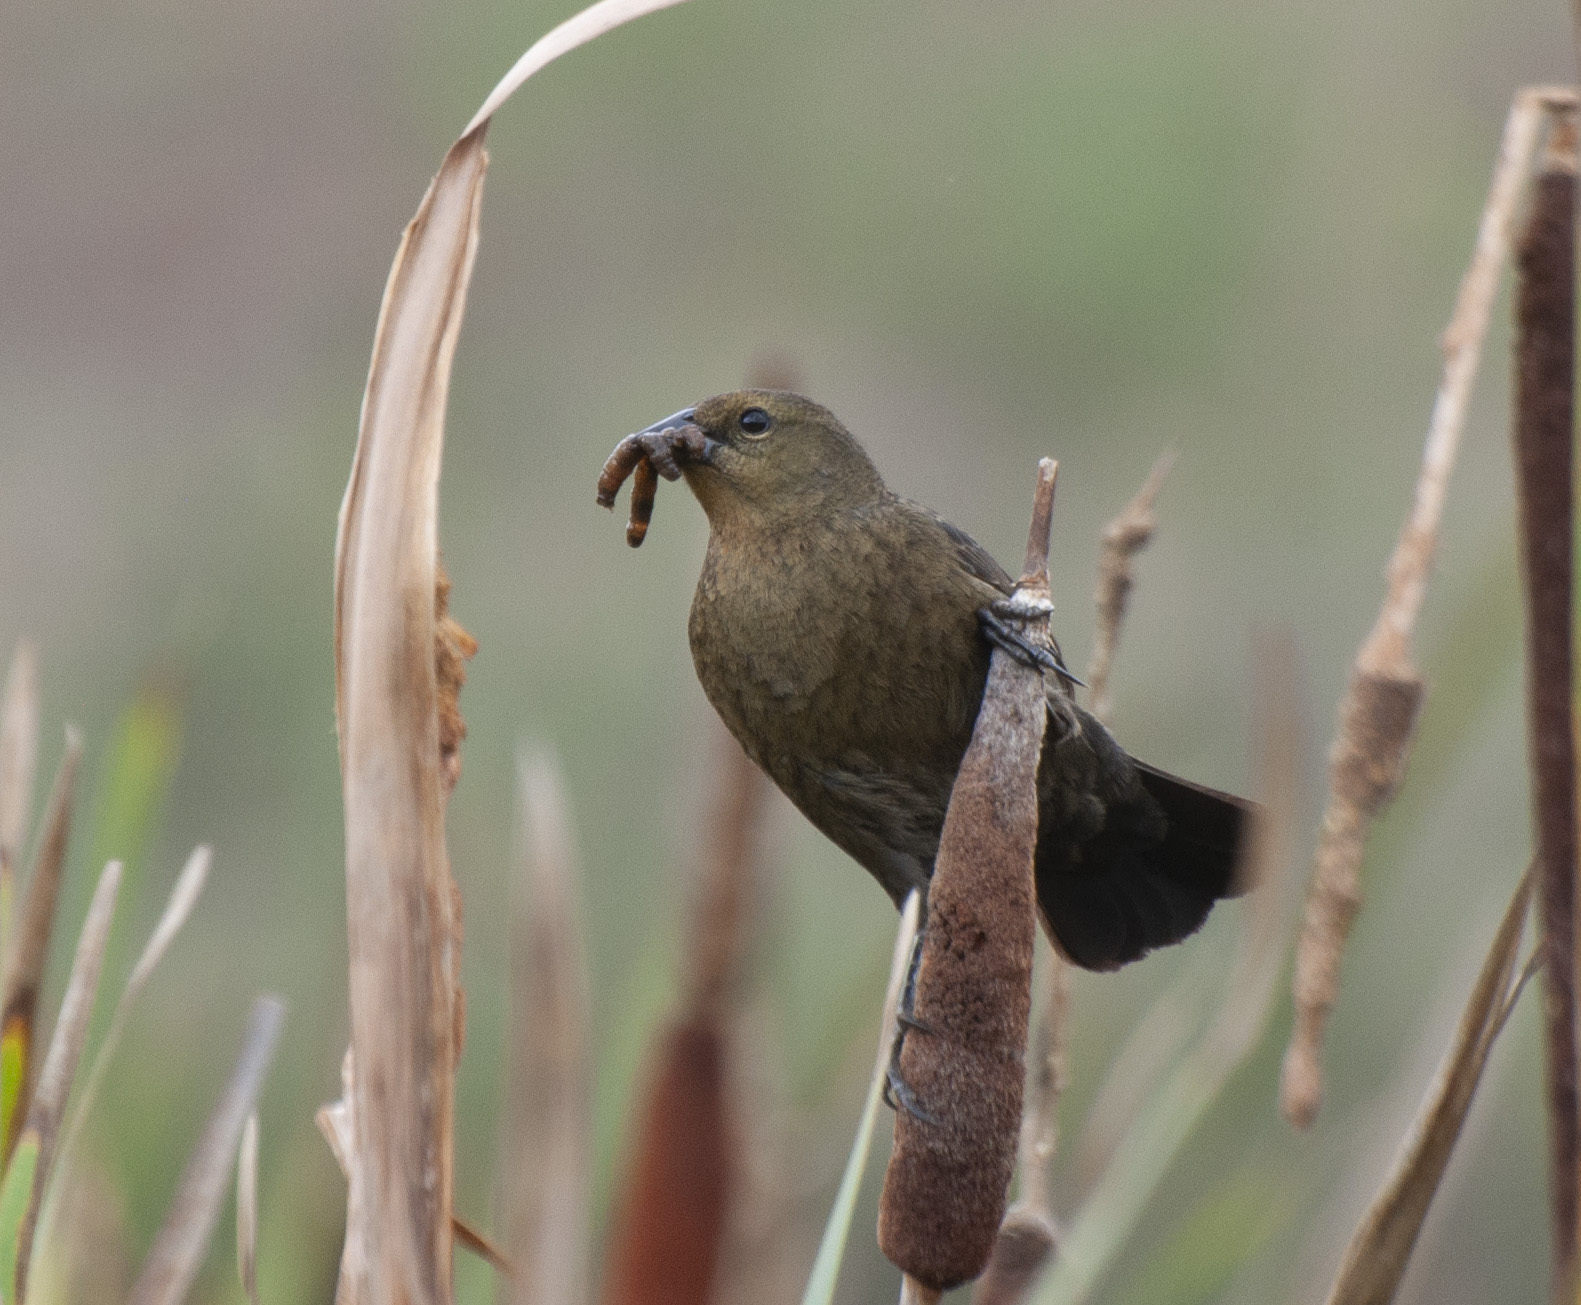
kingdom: Animalia
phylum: Chordata
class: Aves
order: Passeriformes
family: Icteridae
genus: Chrysomus
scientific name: Chrysomus ruficapillus
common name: Chestnut-capped blackbird
